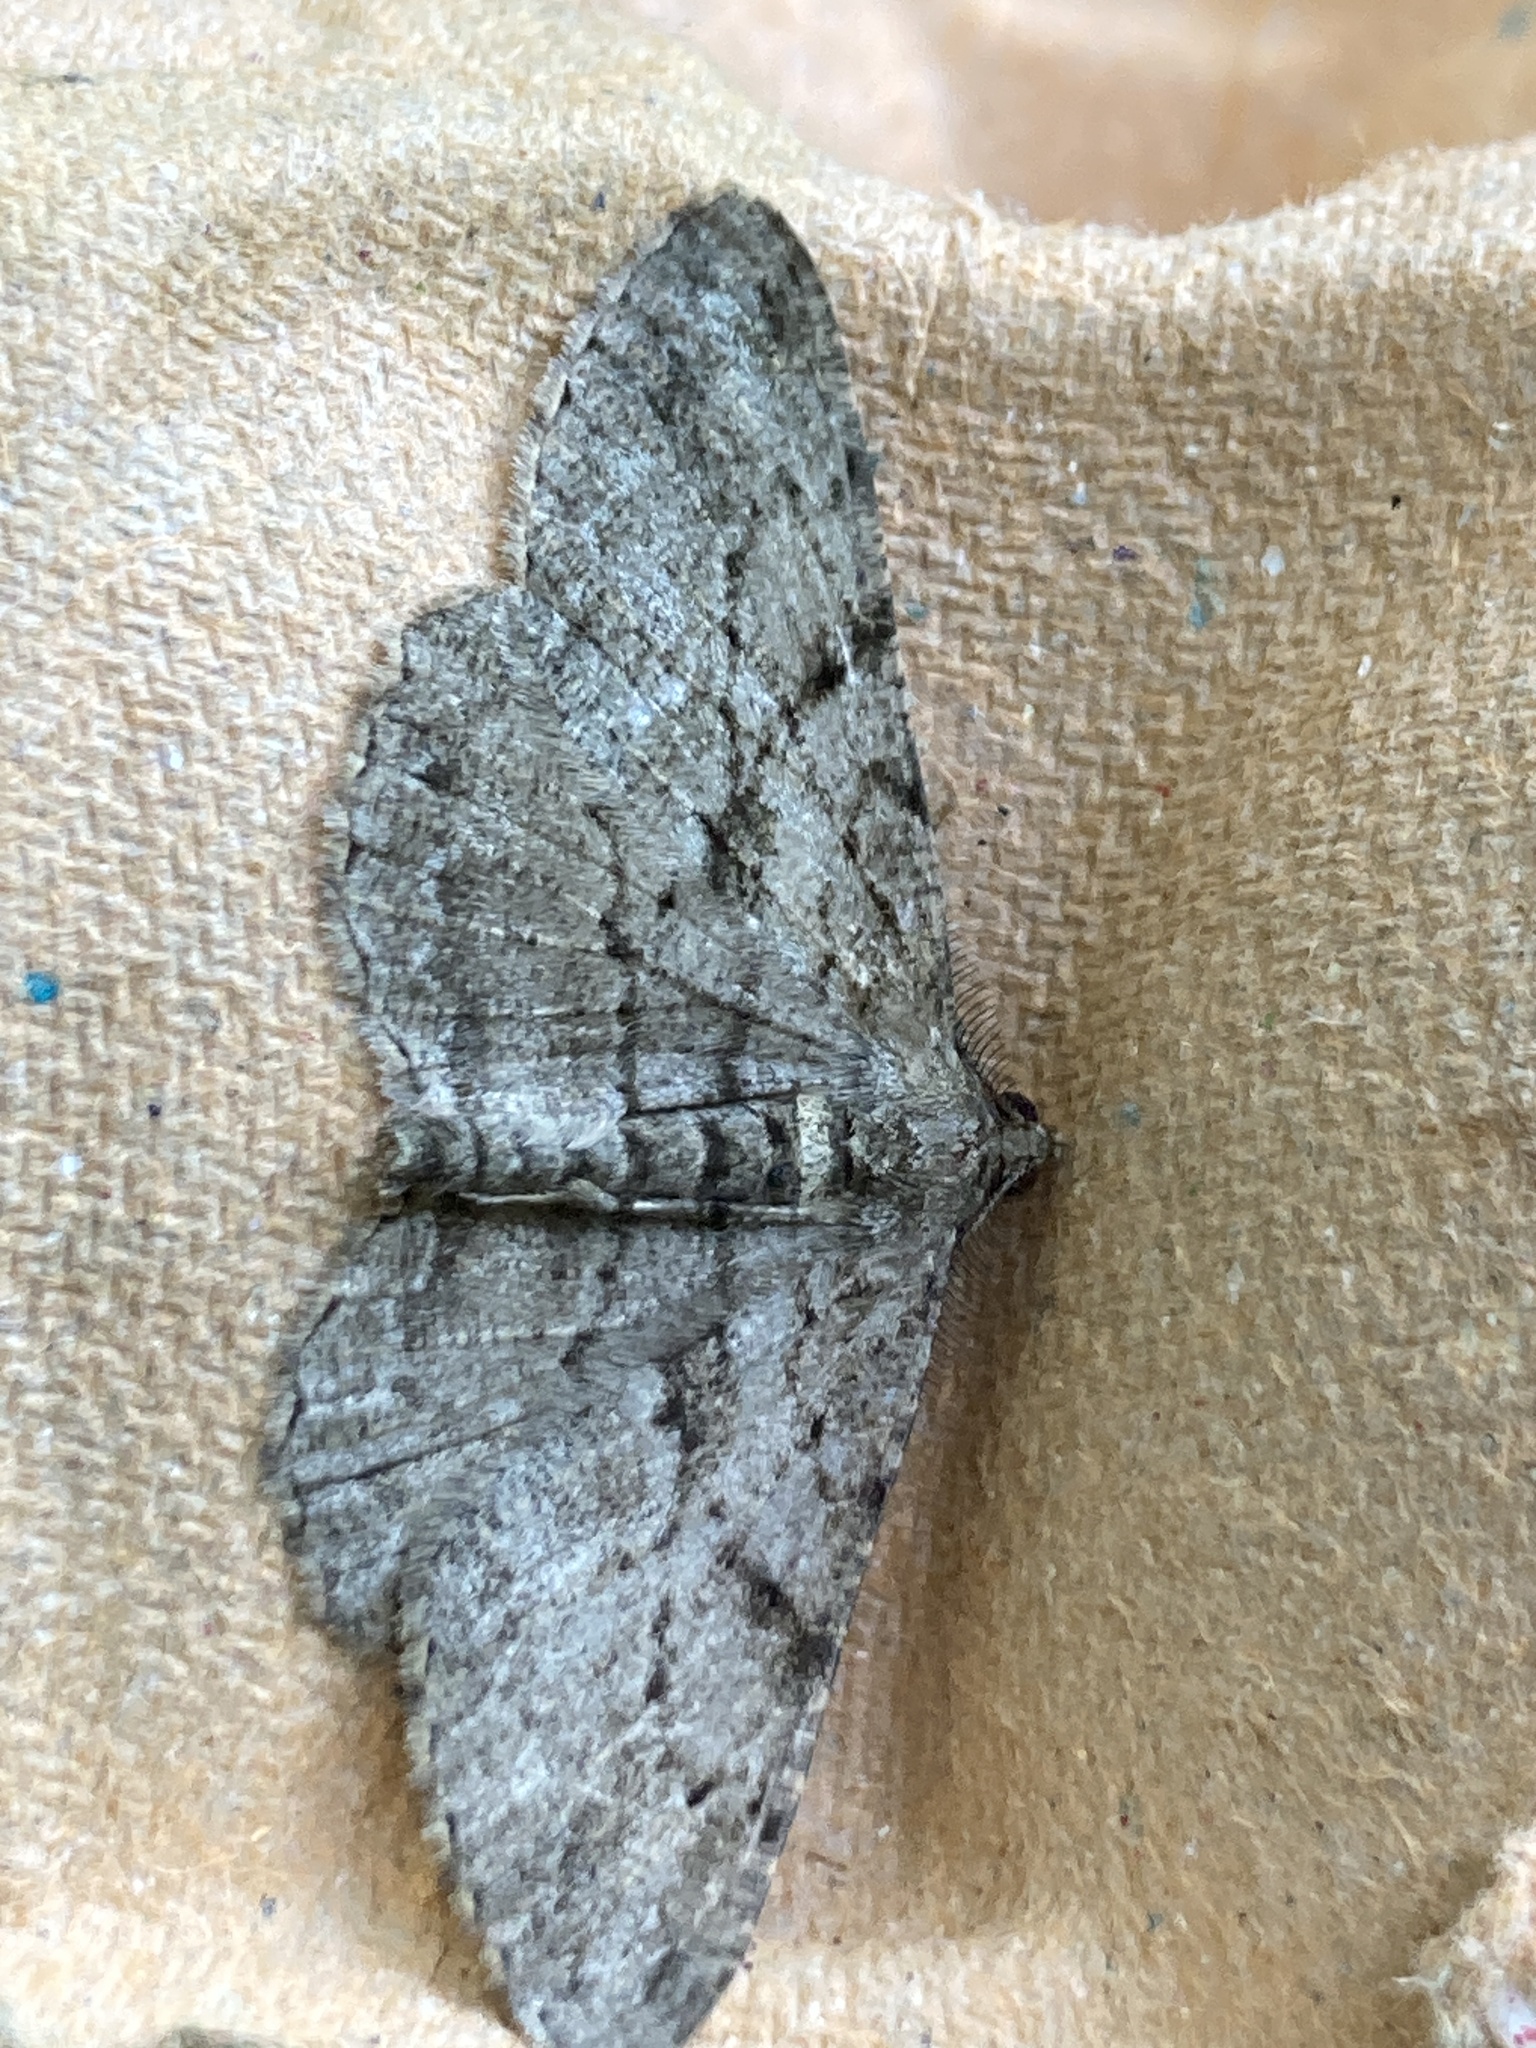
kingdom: Animalia
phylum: Arthropoda
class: Insecta
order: Lepidoptera
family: Geometridae
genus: Peribatodes
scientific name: Peribatodes rhomboidaria
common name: Willow beauty
